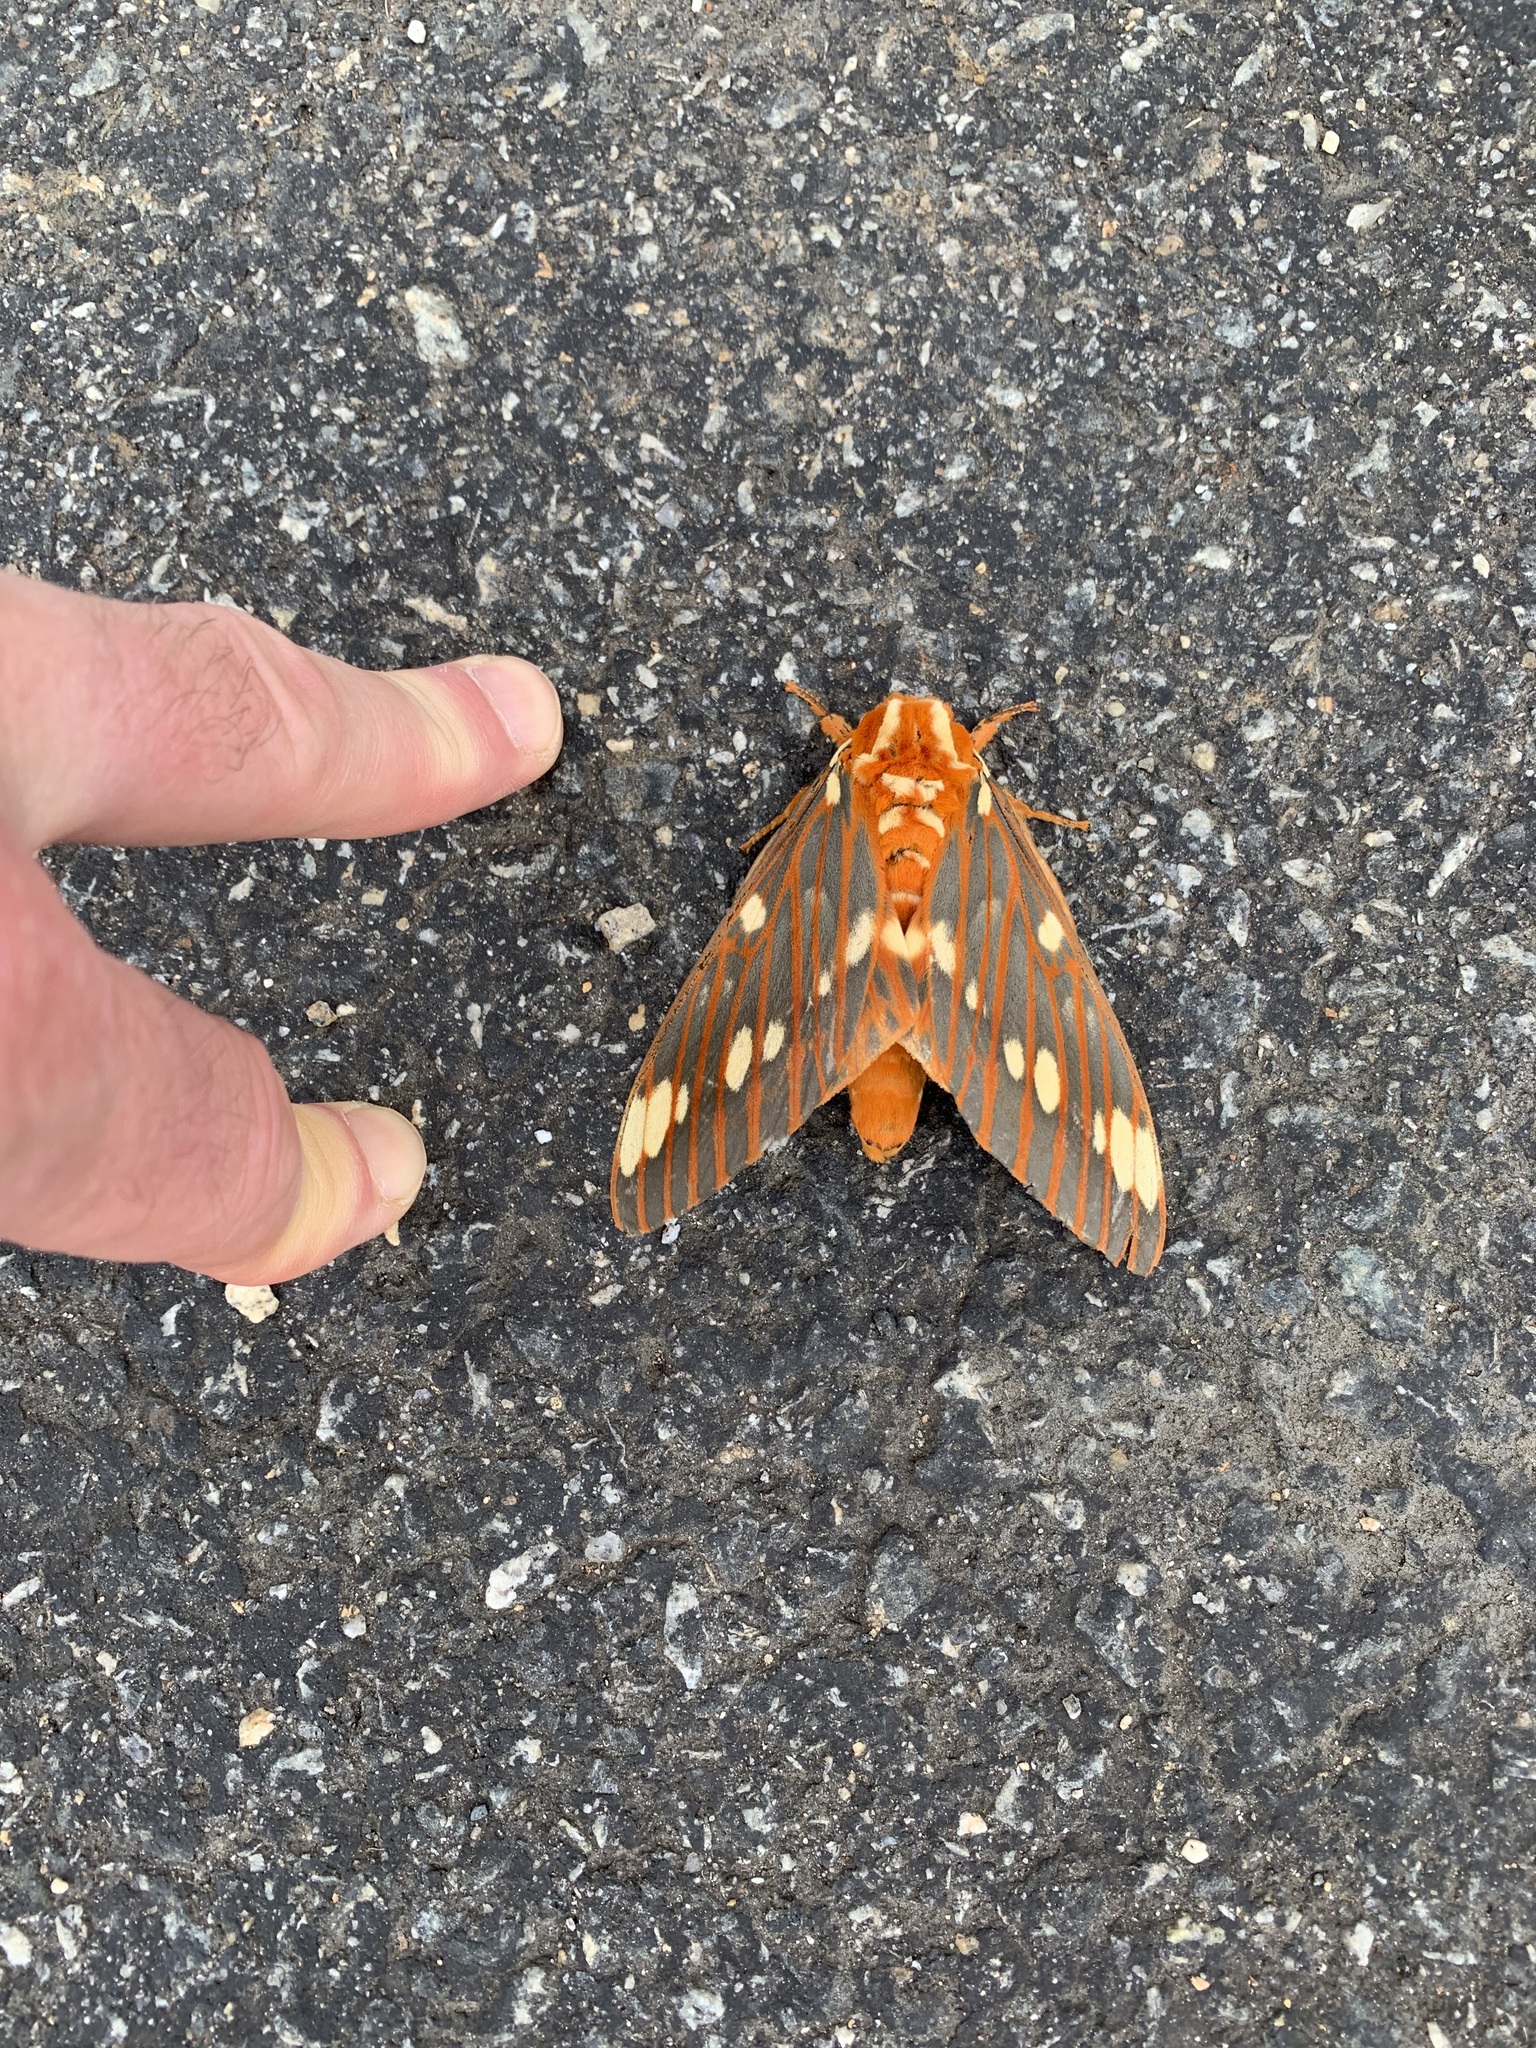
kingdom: Animalia
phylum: Arthropoda
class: Insecta
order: Lepidoptera
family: Saturniidae
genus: Citheronia
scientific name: Citheronia regalis
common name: Hickory horned devil
